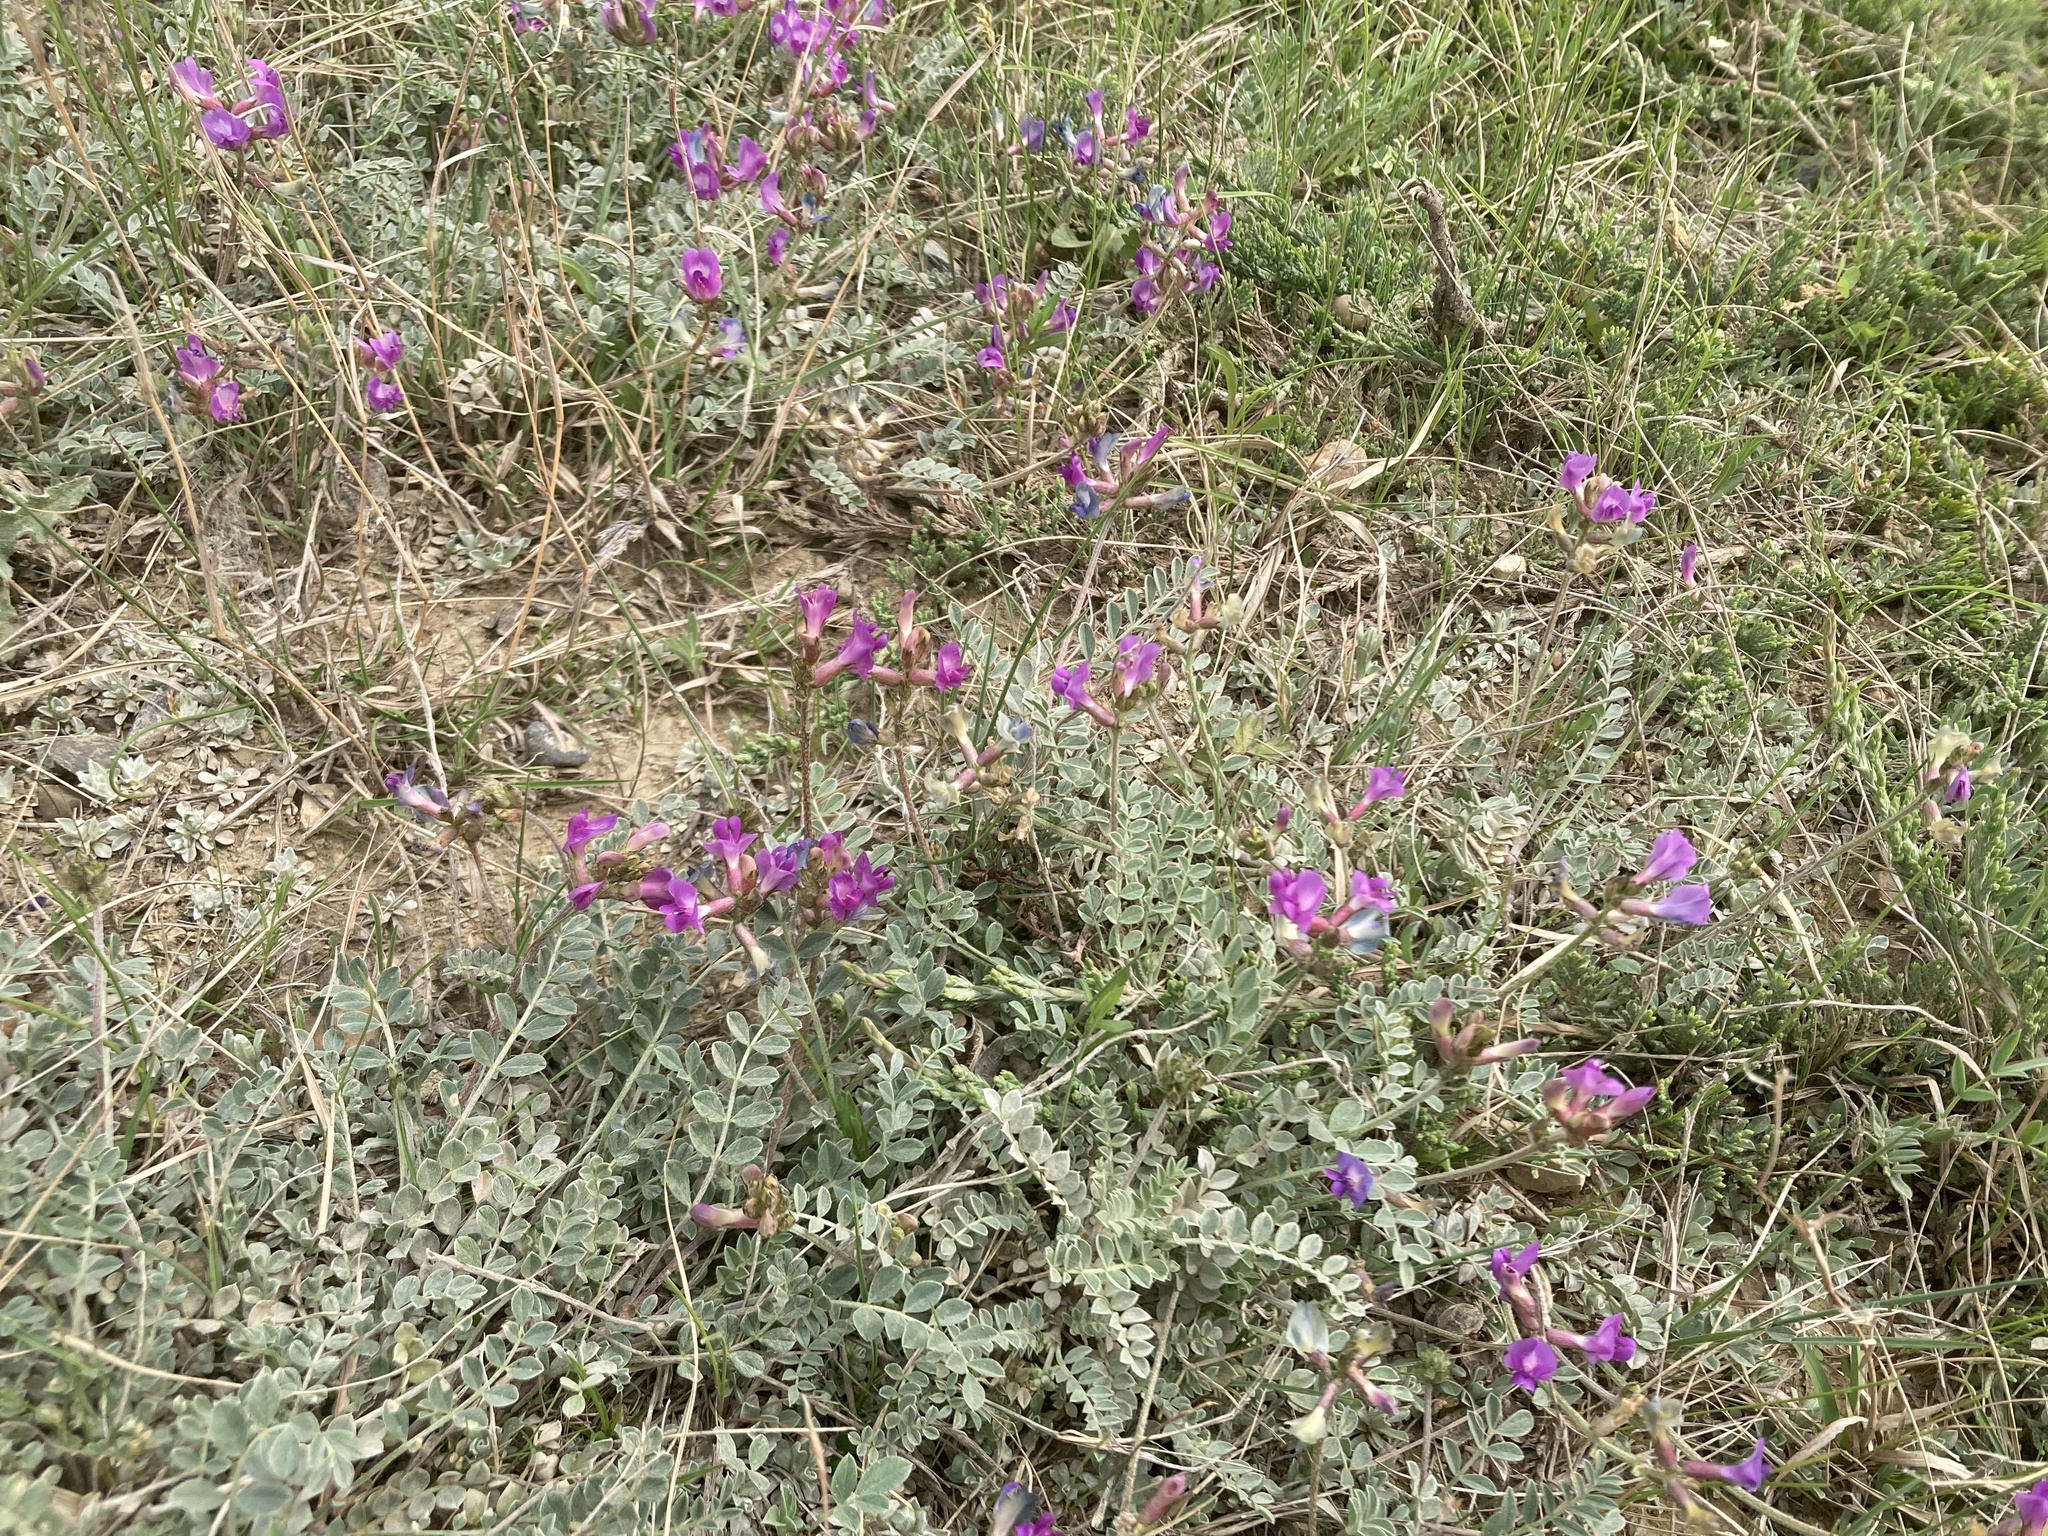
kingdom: Plantae
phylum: Tracheophyta
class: Magnoliopsida
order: Fabales
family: Fabaceae
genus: Astragalus
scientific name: Astragalus missouriensis
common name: Missouri milk-vetch
